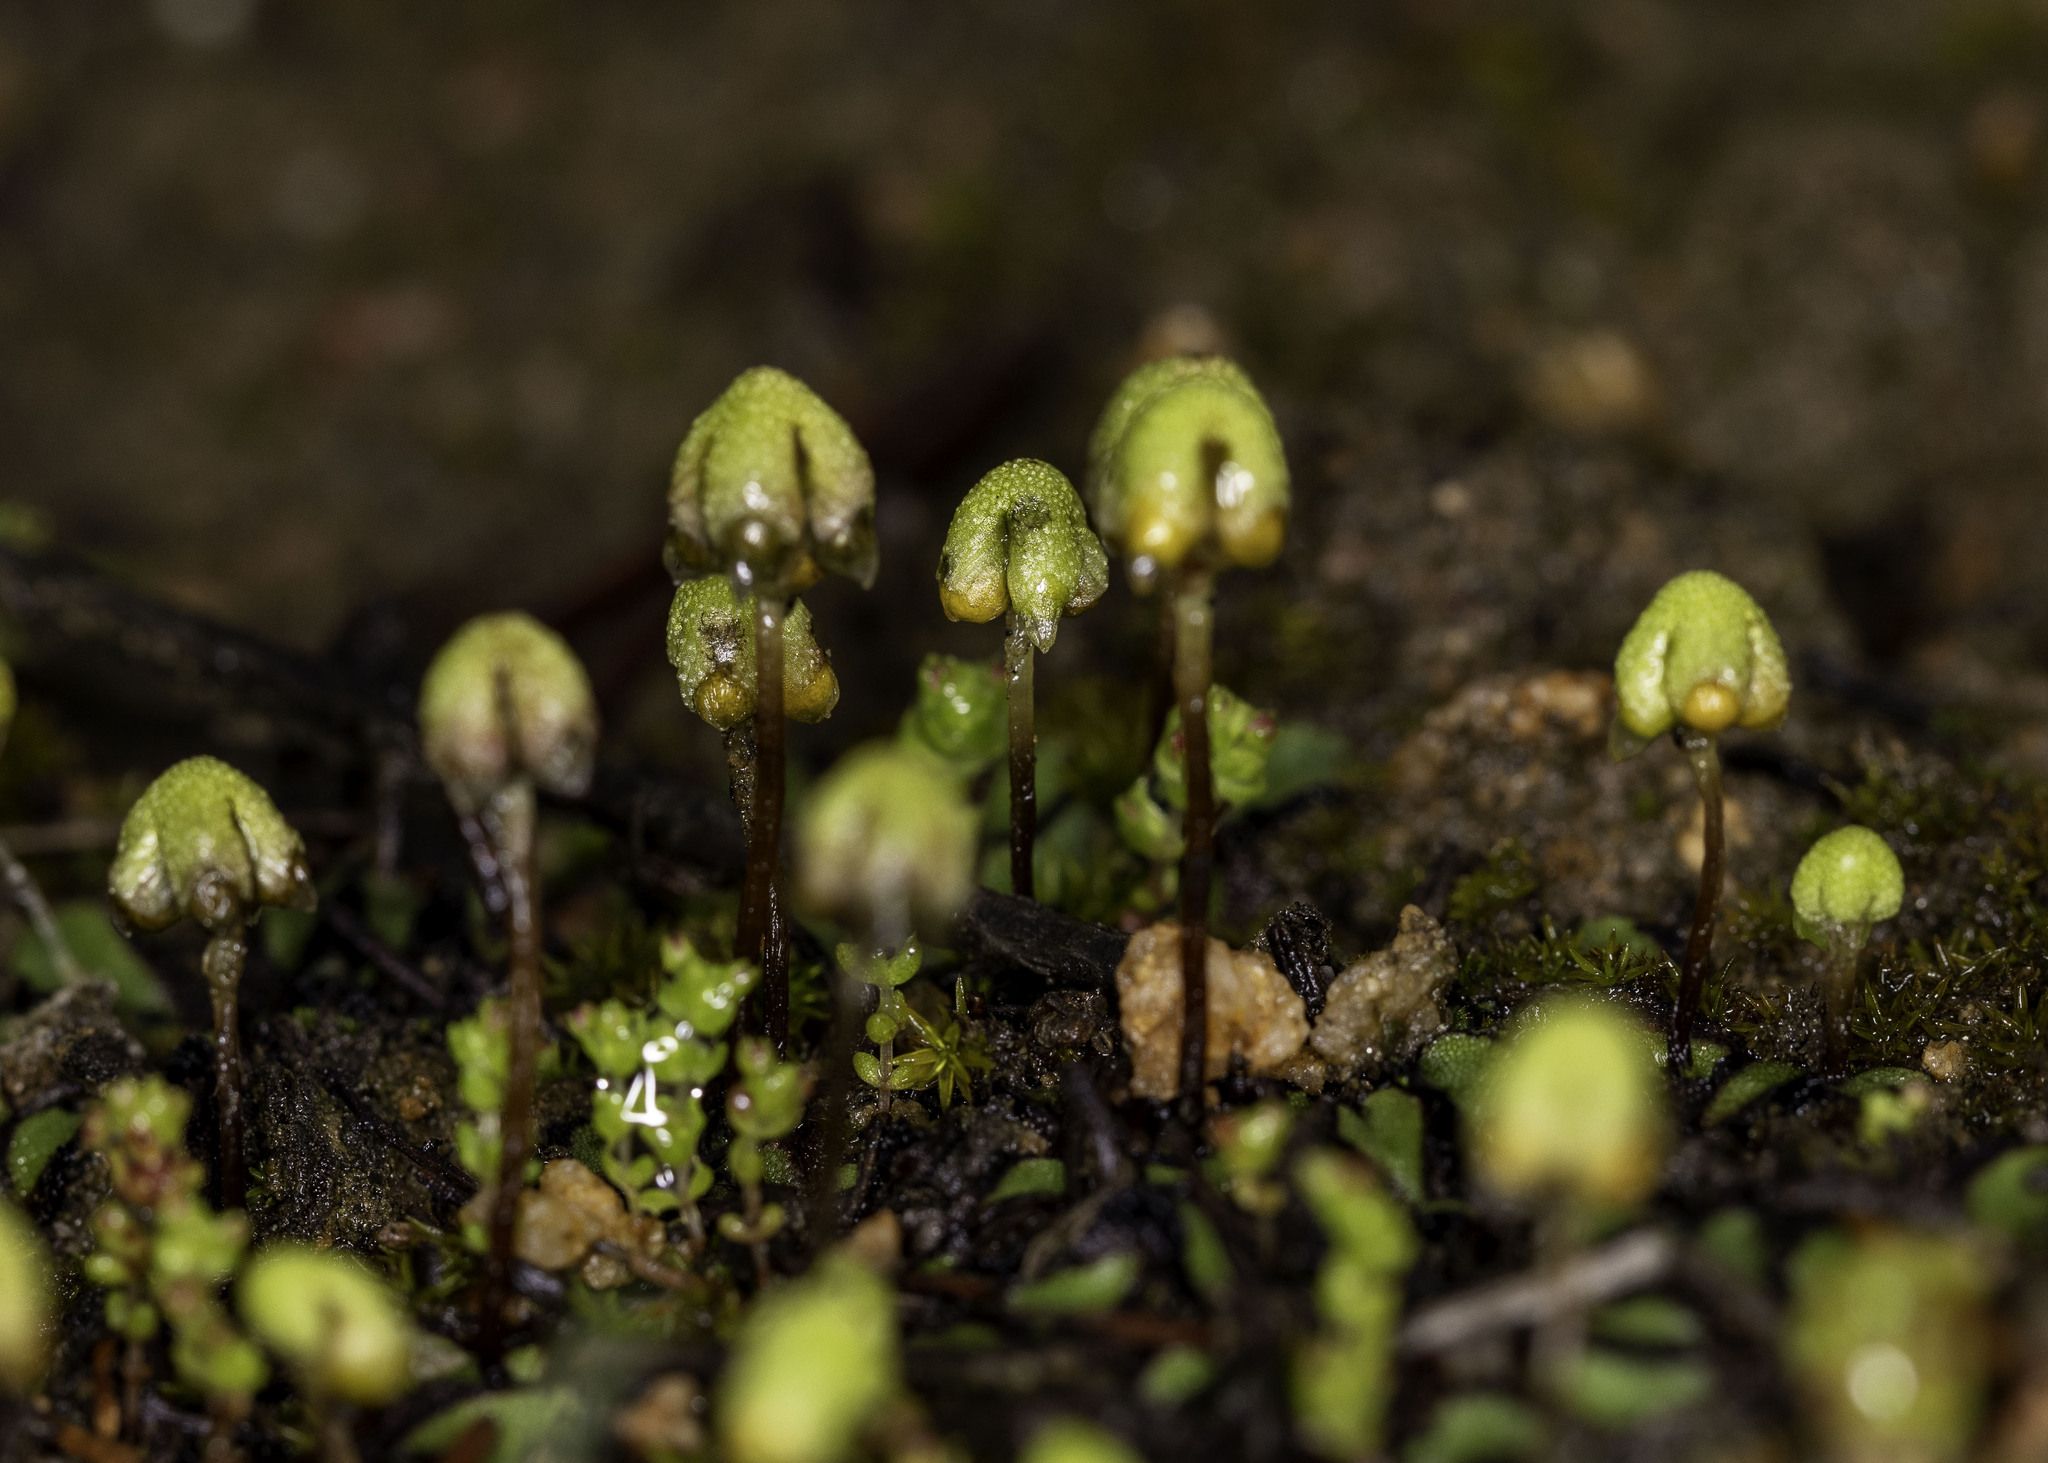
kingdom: Plantae
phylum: Marchantiophyta
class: Marchantiopsida
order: Marchantiales
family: Aytoniaceae
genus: Asterella
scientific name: Asterella californica
